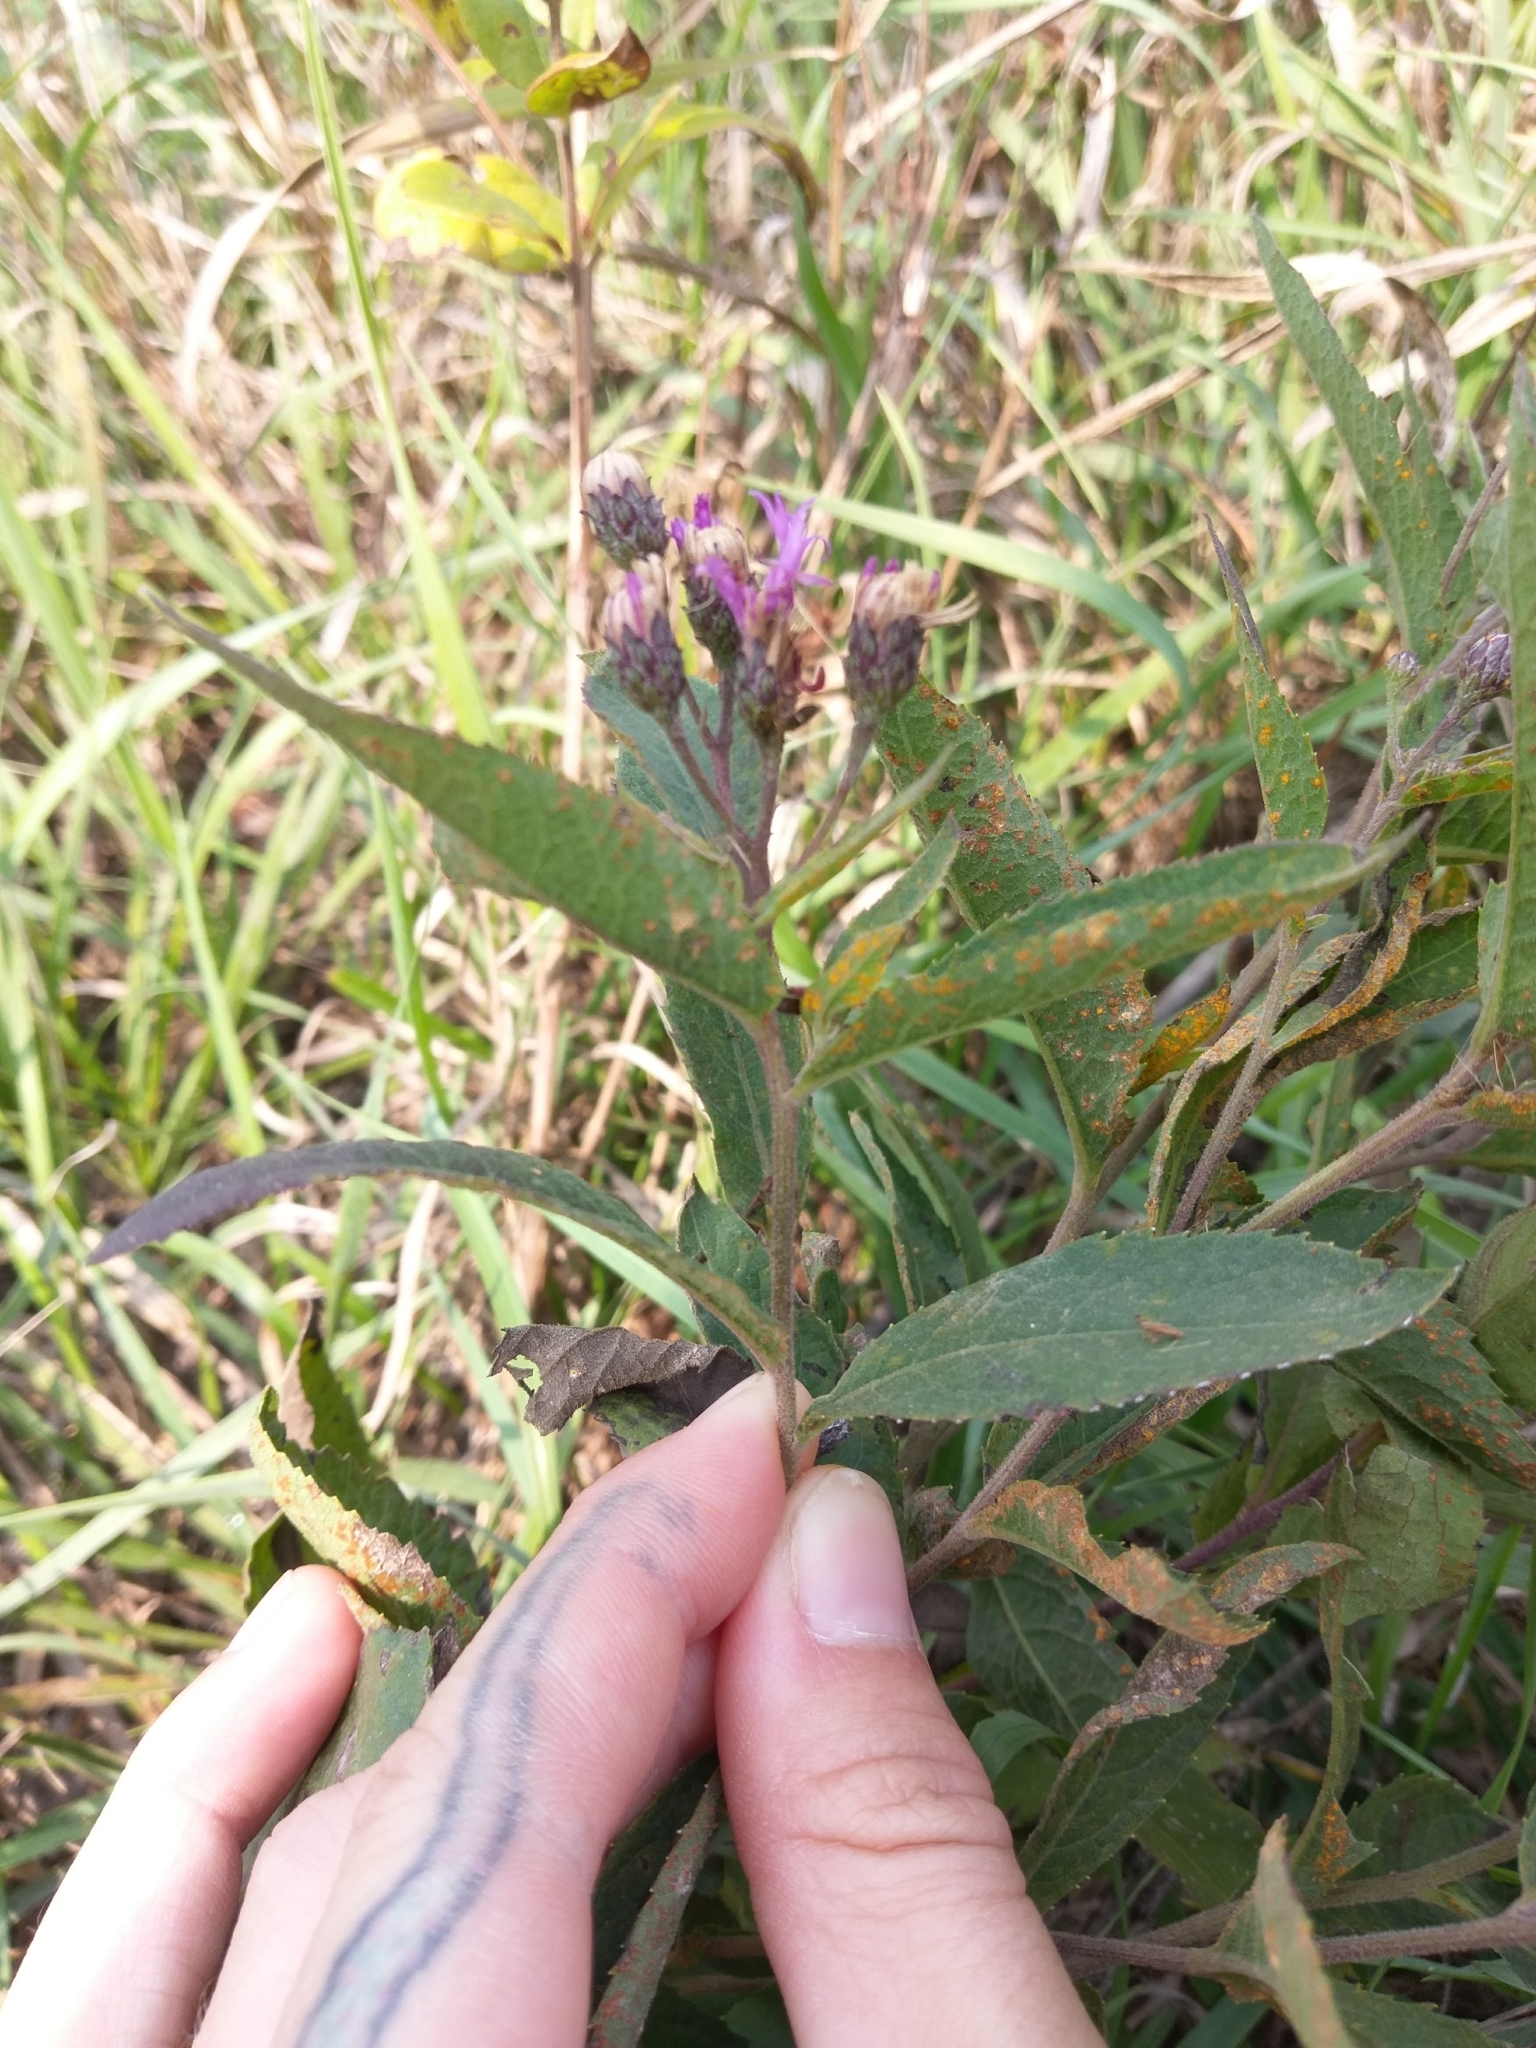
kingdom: Plantae
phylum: Tracheophyta
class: Magnoliopsida
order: Asterales
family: Asteraceae
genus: Vernonia
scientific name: Vernonia baldwinii
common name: Western ironweed
